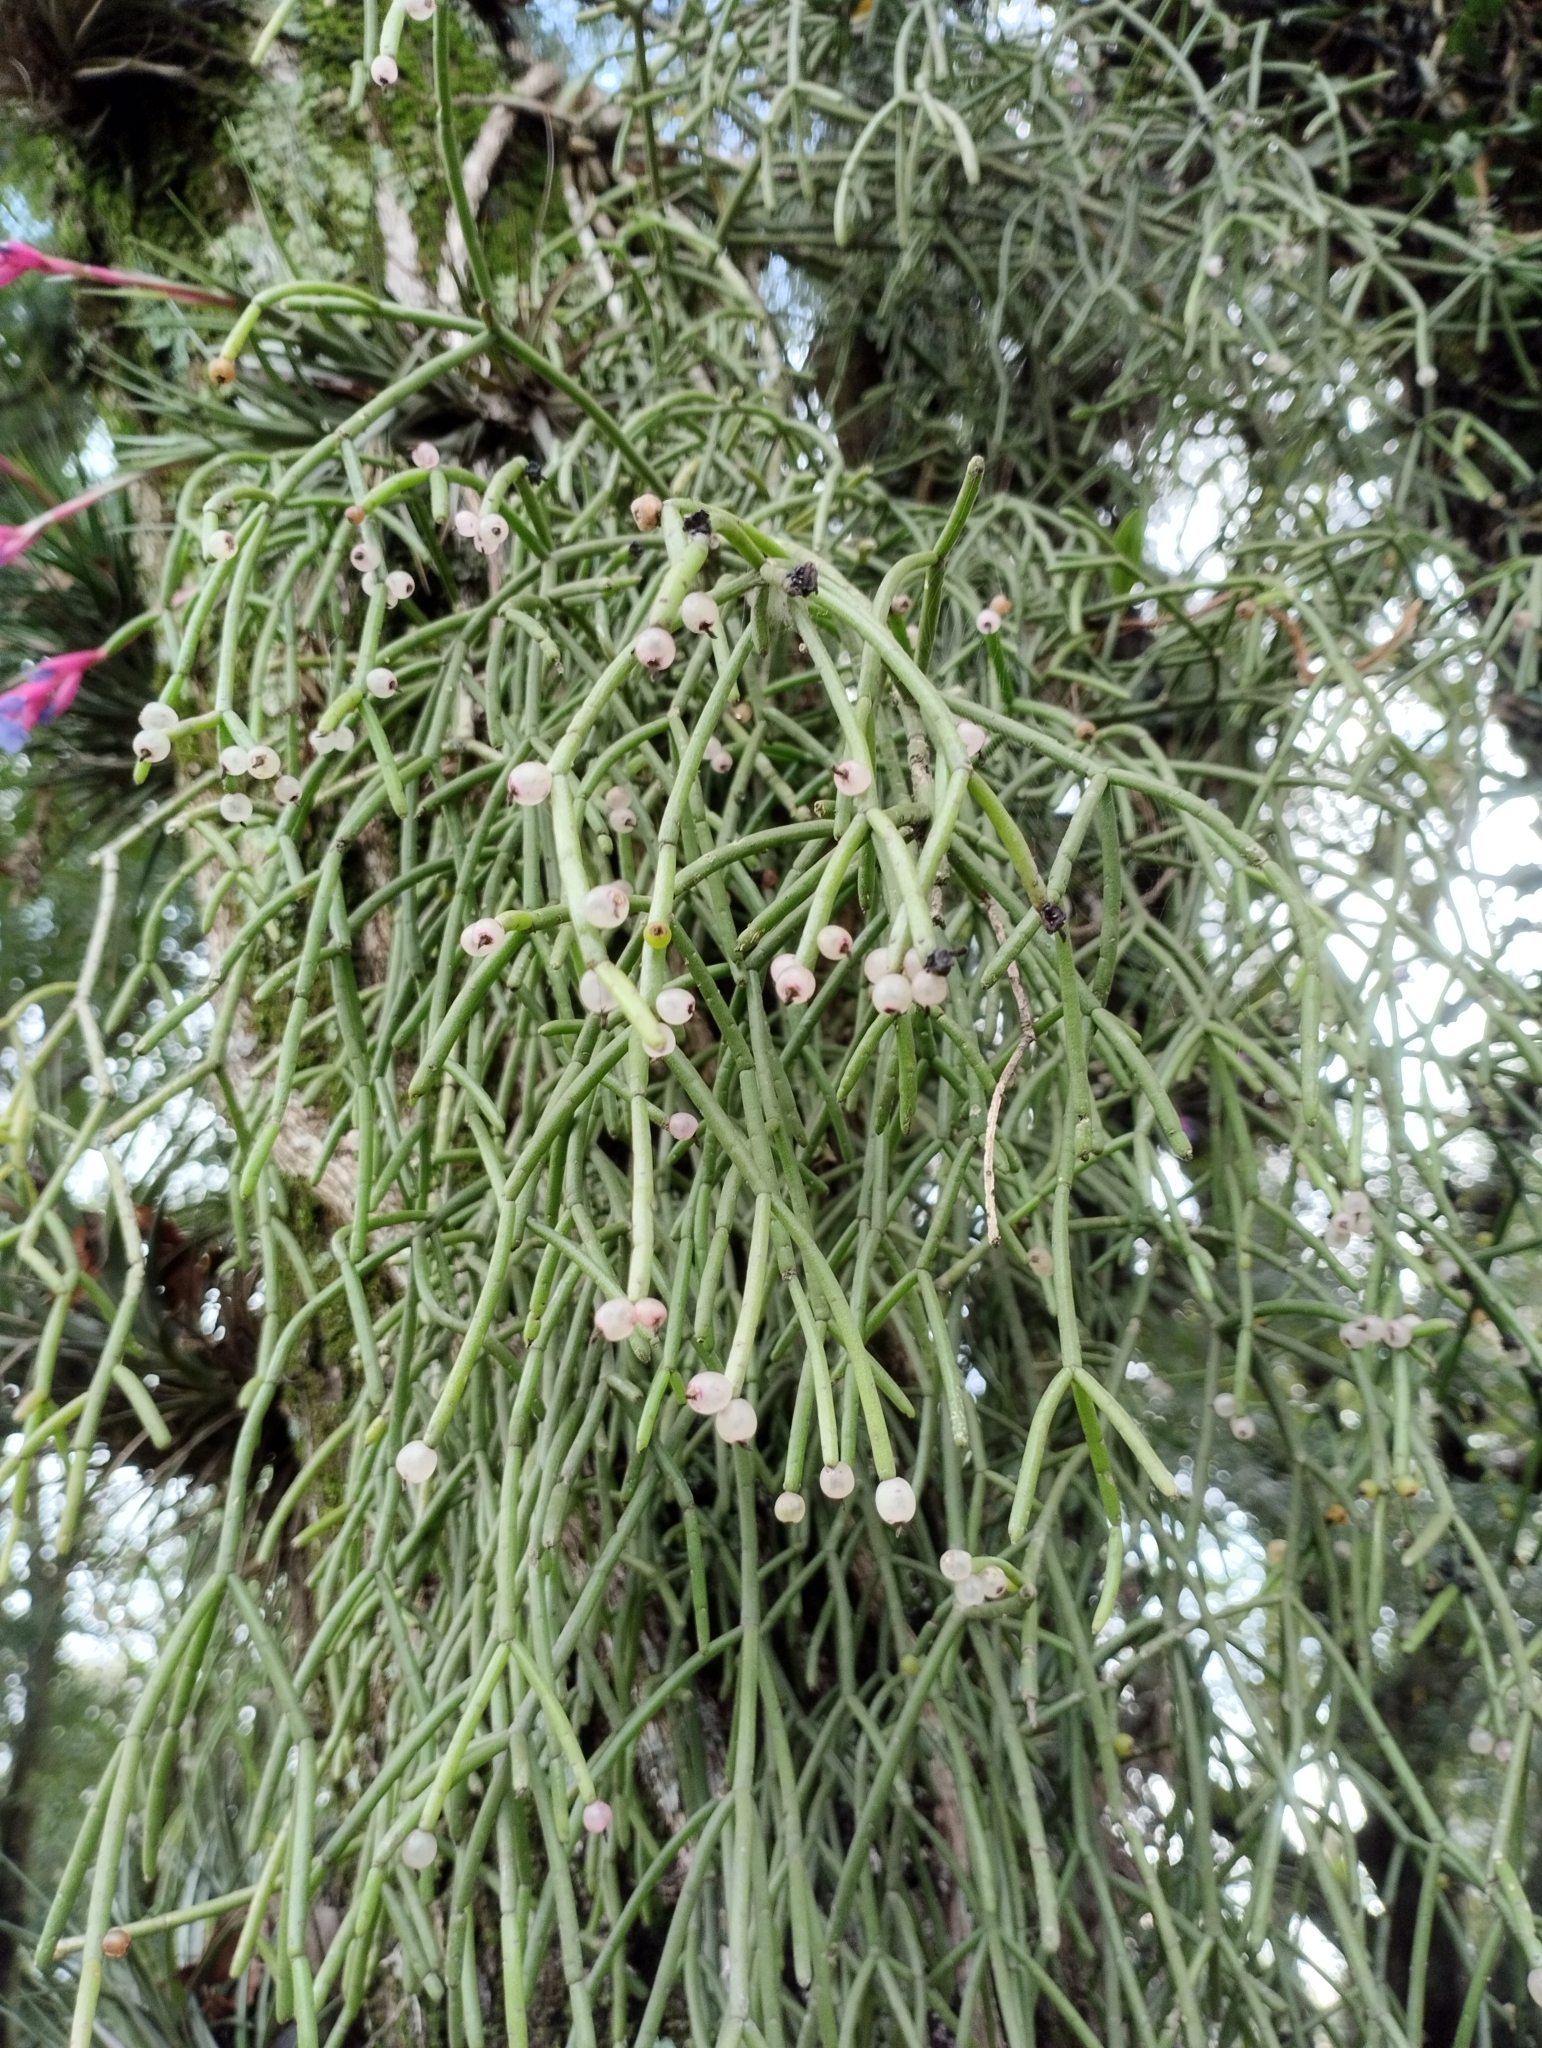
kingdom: Plantae
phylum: Tracheophyta
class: Magnoliopsida
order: Caryophyllales
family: Cactaceae
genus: Rhipsalis
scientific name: Rhipsalis teres
